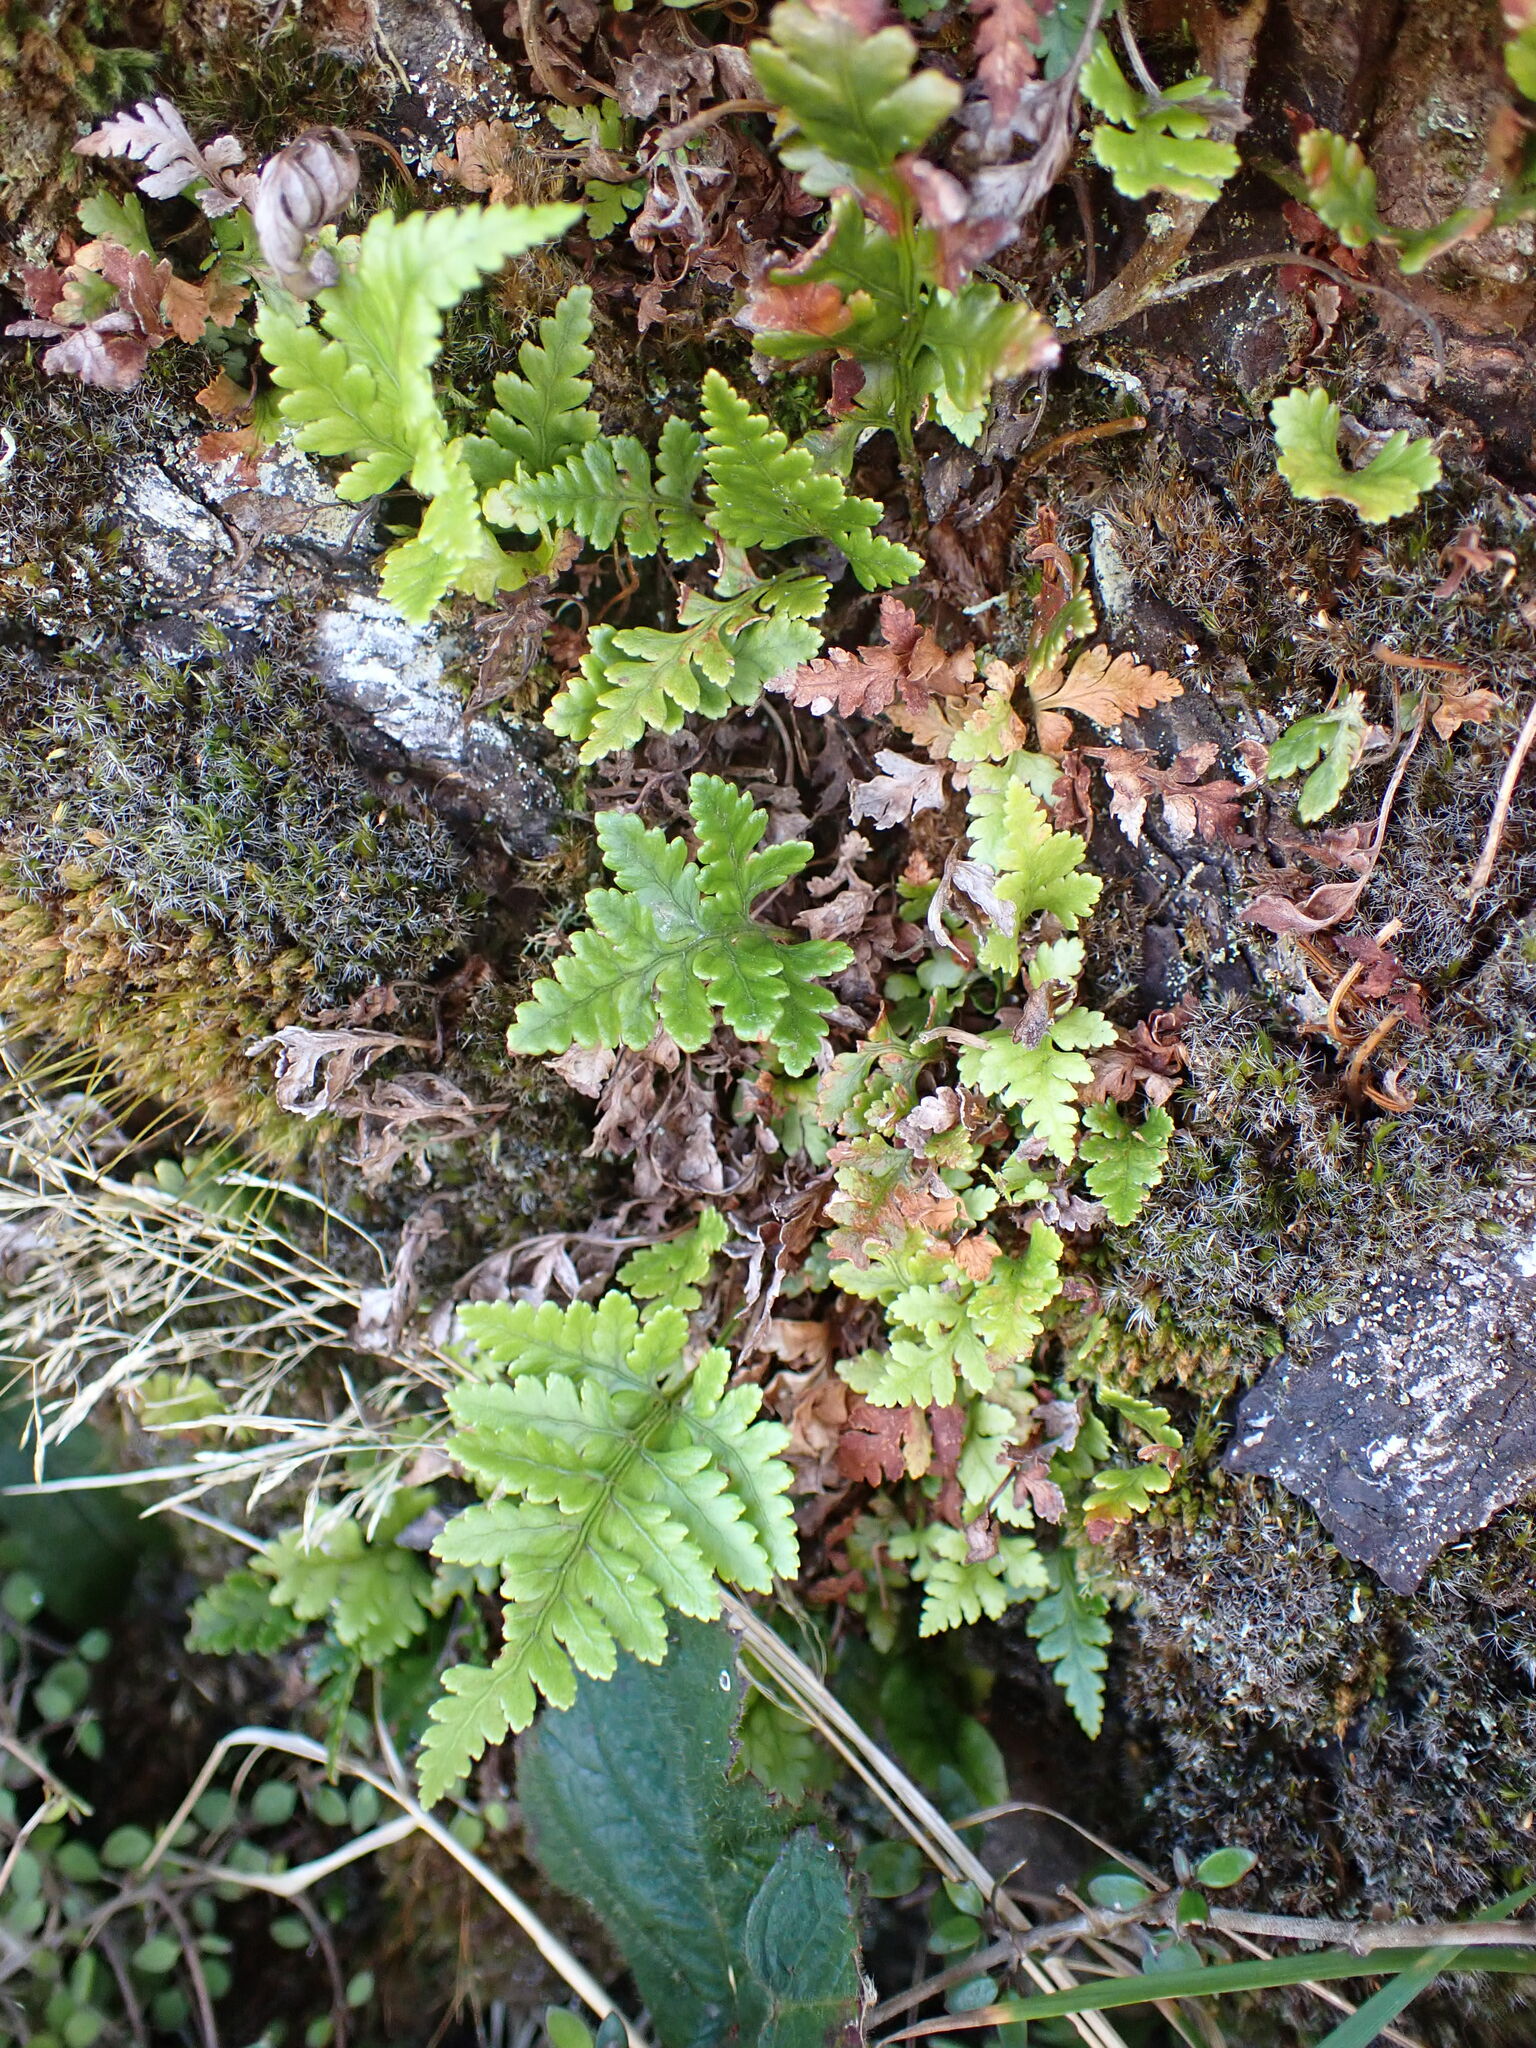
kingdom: Plantae
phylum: Tracheophyta
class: Polypodiopsida
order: Polypodiales
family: Dryopteridaceae
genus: Rumohra
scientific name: Rumohra adiantiformis
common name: Leather fern
